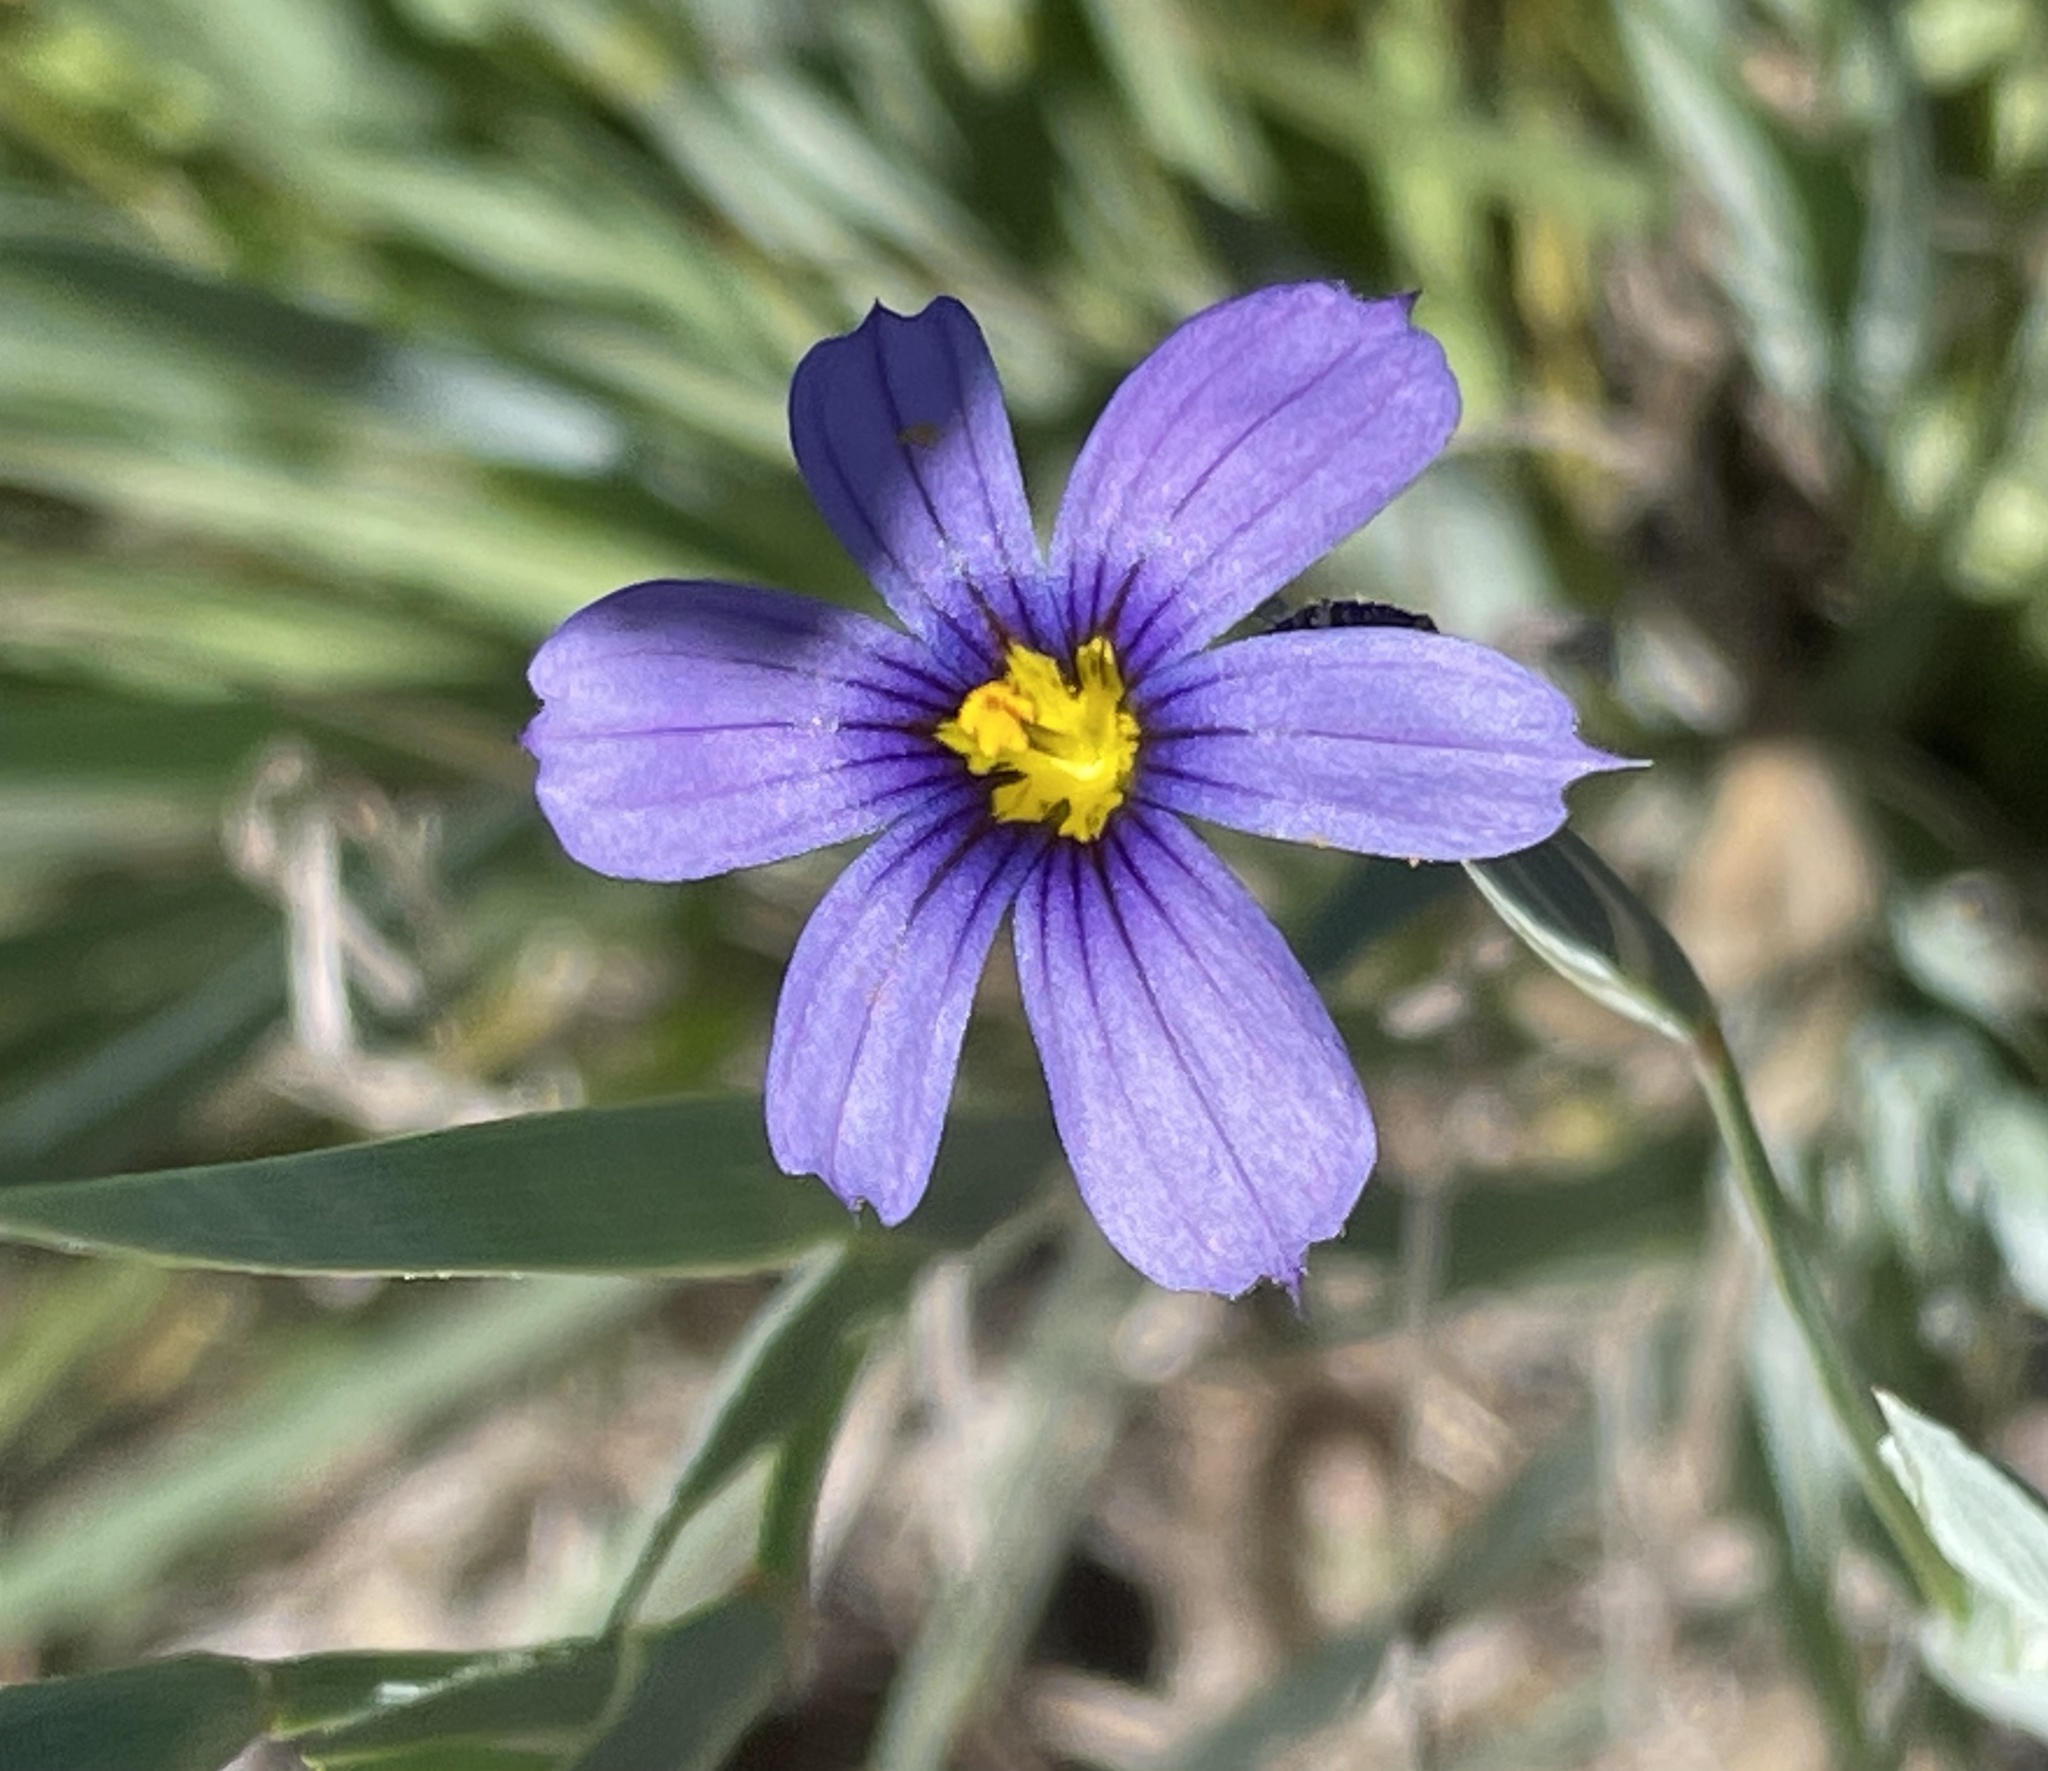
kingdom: Plantae
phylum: Tracheophyta
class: Liliopsida
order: Asparagales
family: Iridaceae
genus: Sisyrinchium
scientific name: Sisyrinchium bellum
